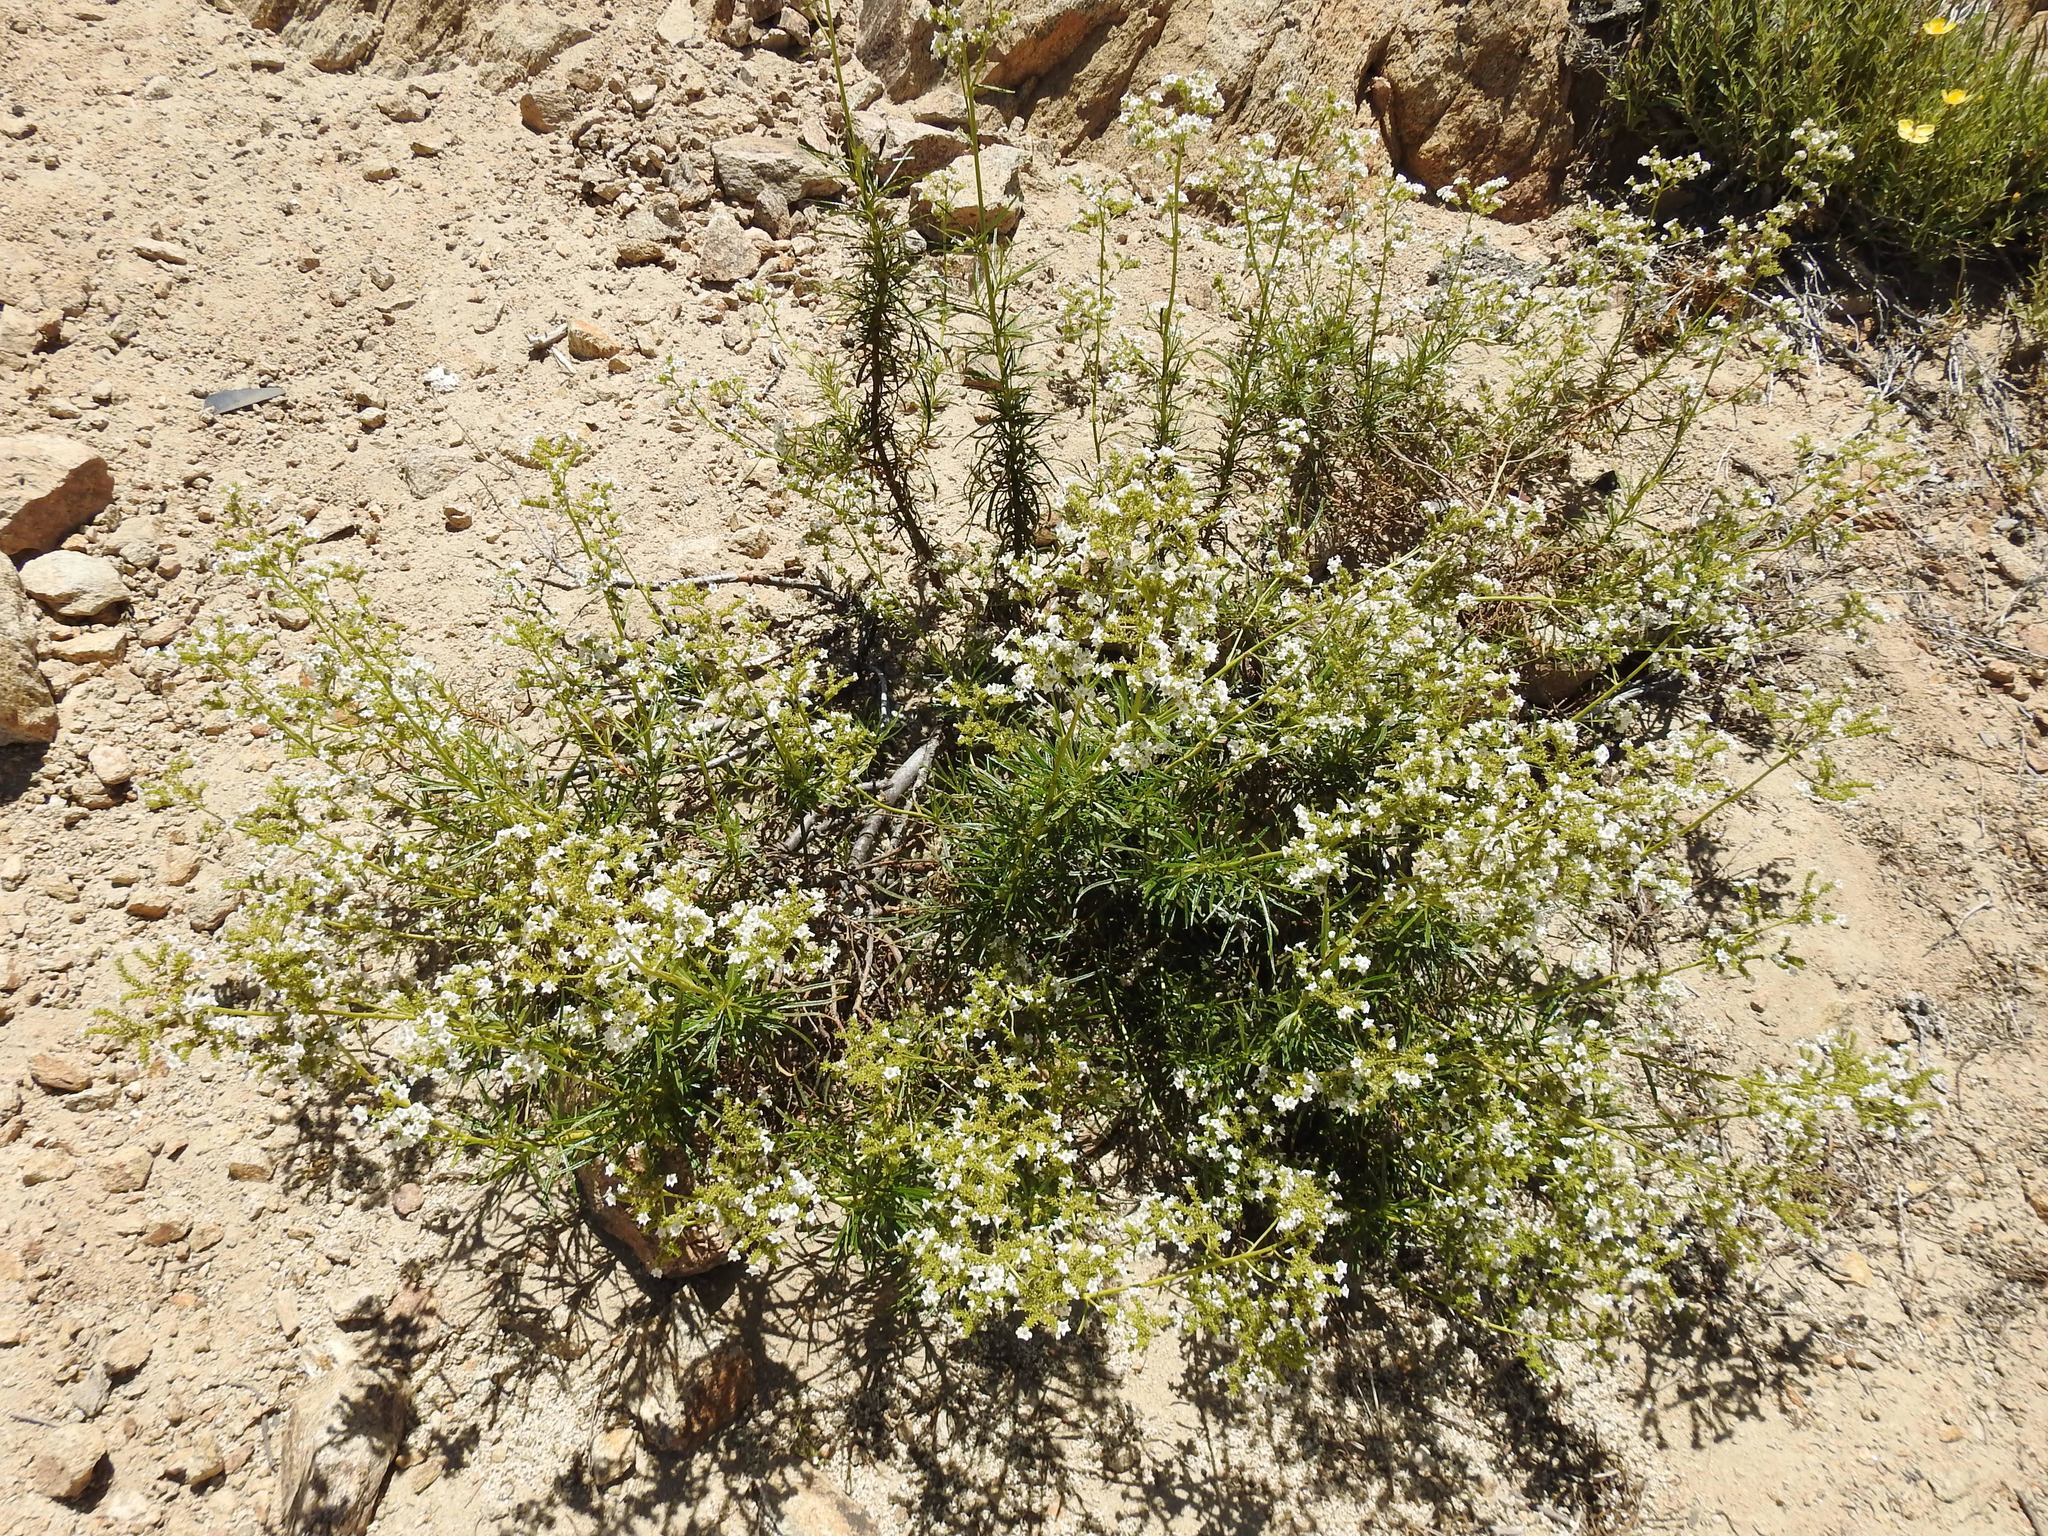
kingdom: Plantae
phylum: Tracheophyta
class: Magnoliopsida
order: Boraginales
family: Namaceae
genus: Eriodictyon
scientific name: Eriodictyon angustifolium
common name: Narrow-leaf yerba santa
